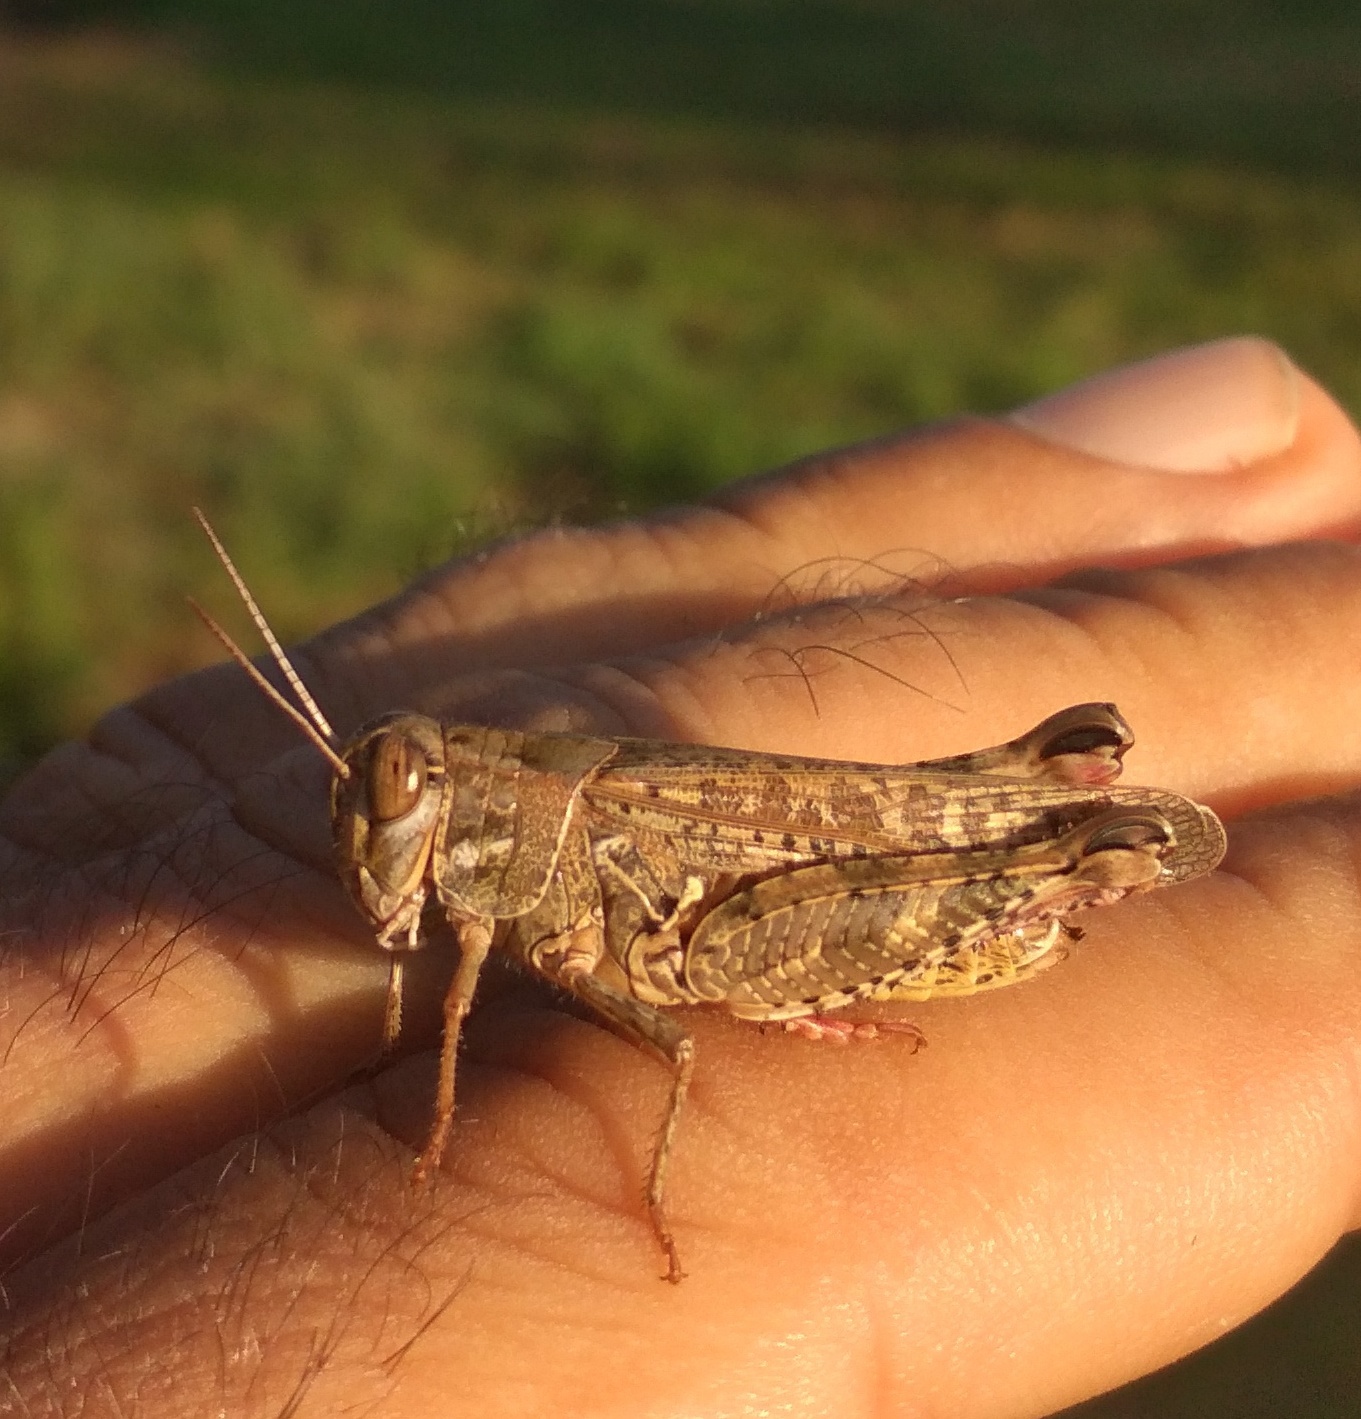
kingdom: Animalia
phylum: Arthropoda
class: Insecta
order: Orthoptera
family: Acrididae
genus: Calliptamus
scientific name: Calliptamus italicus
